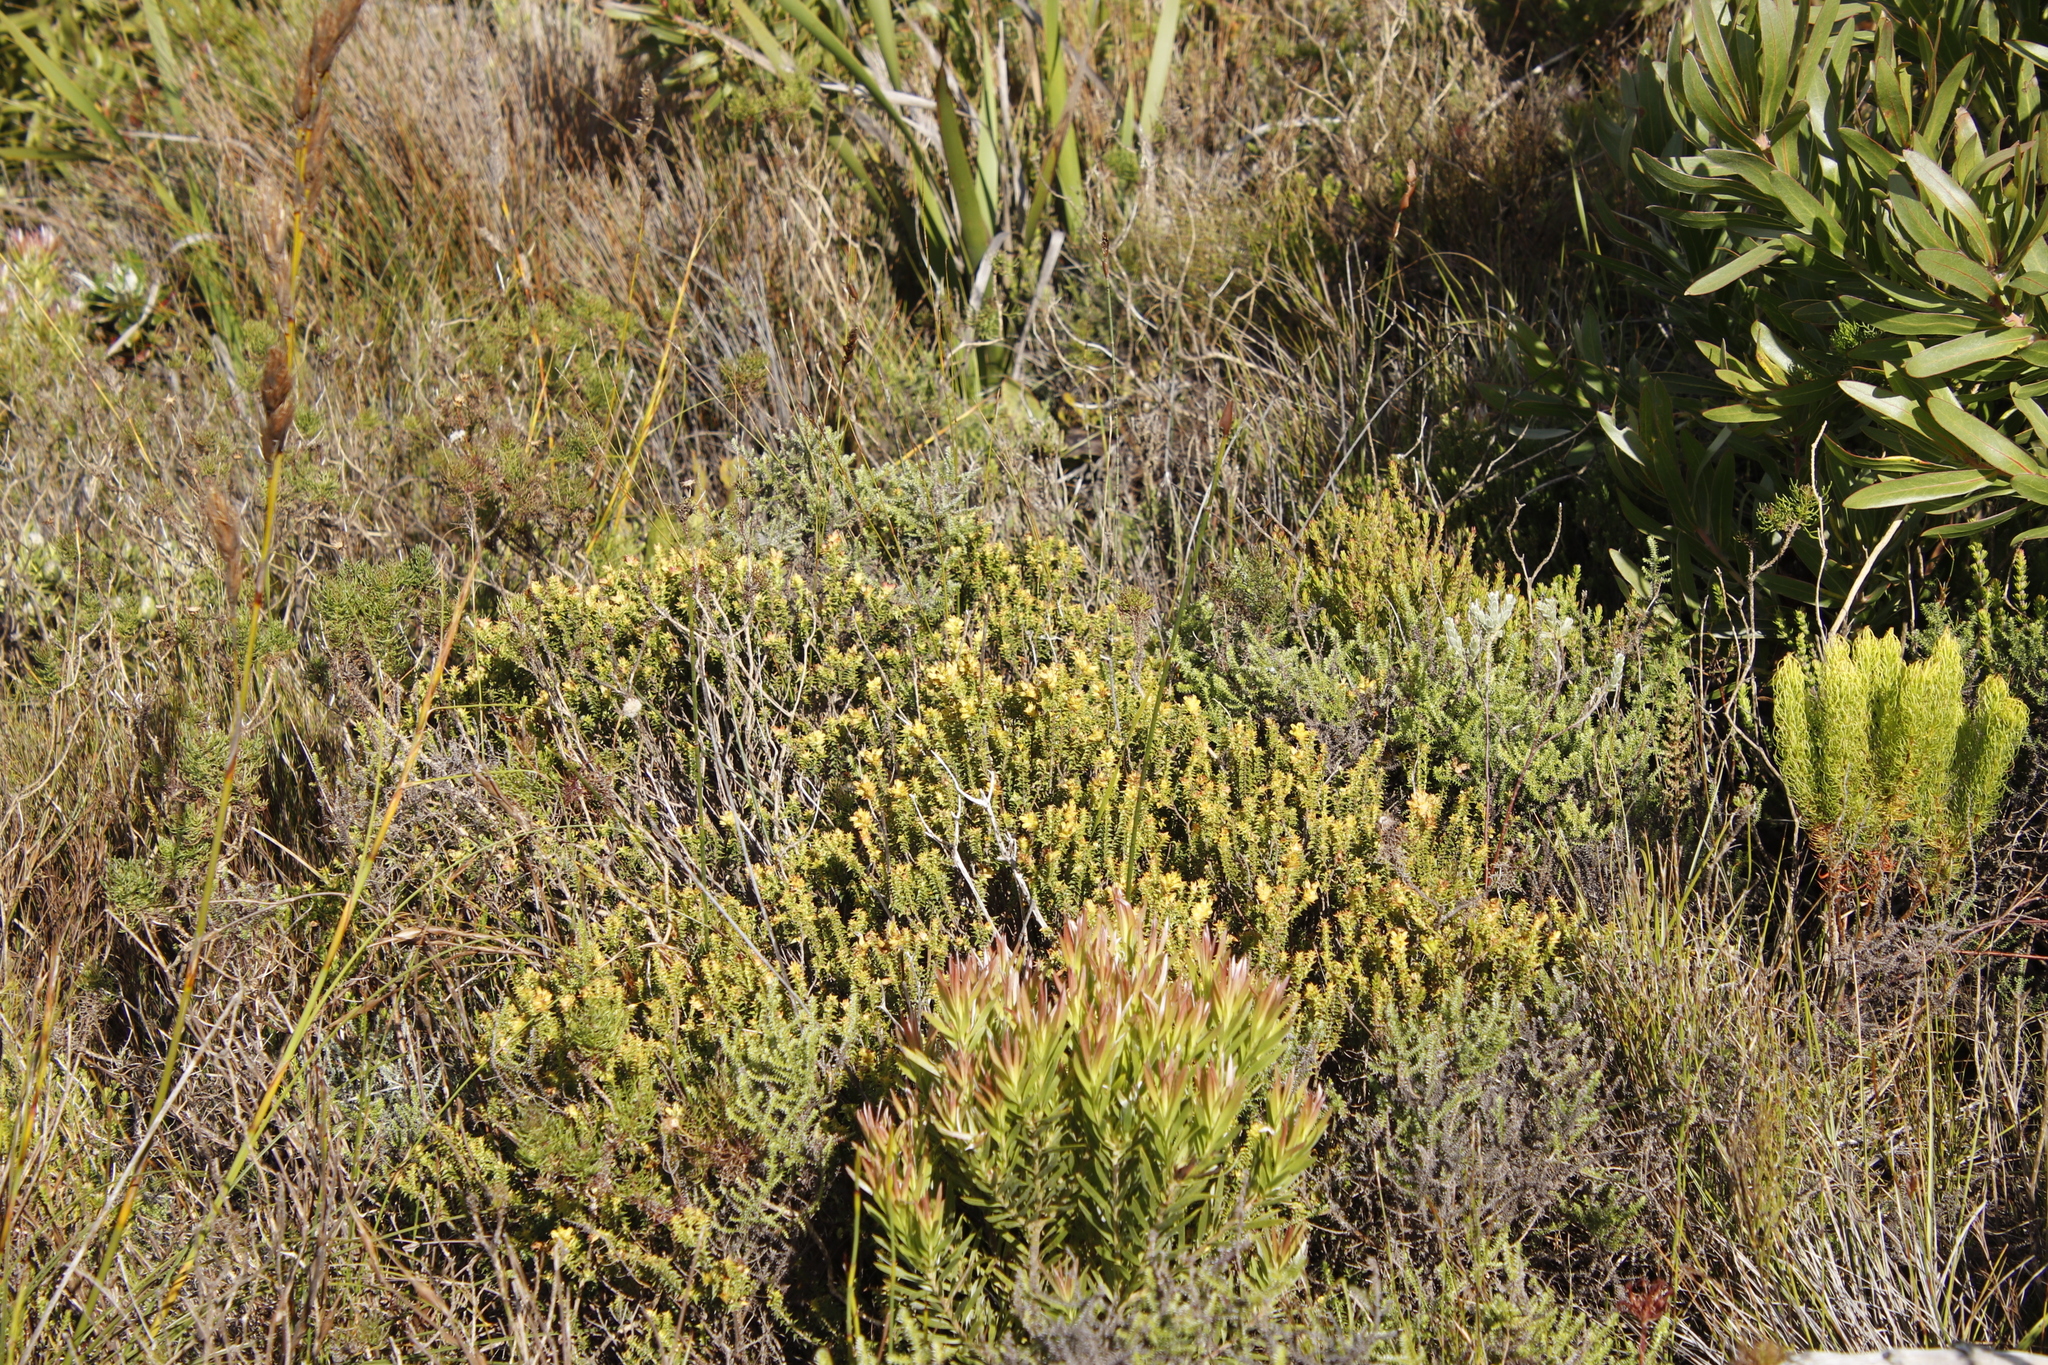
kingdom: Plantae
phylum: Tracheophyta
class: Magnoliopsida
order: Myrtales
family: Penaeaceae
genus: Penaea
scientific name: Penaea mucronata
